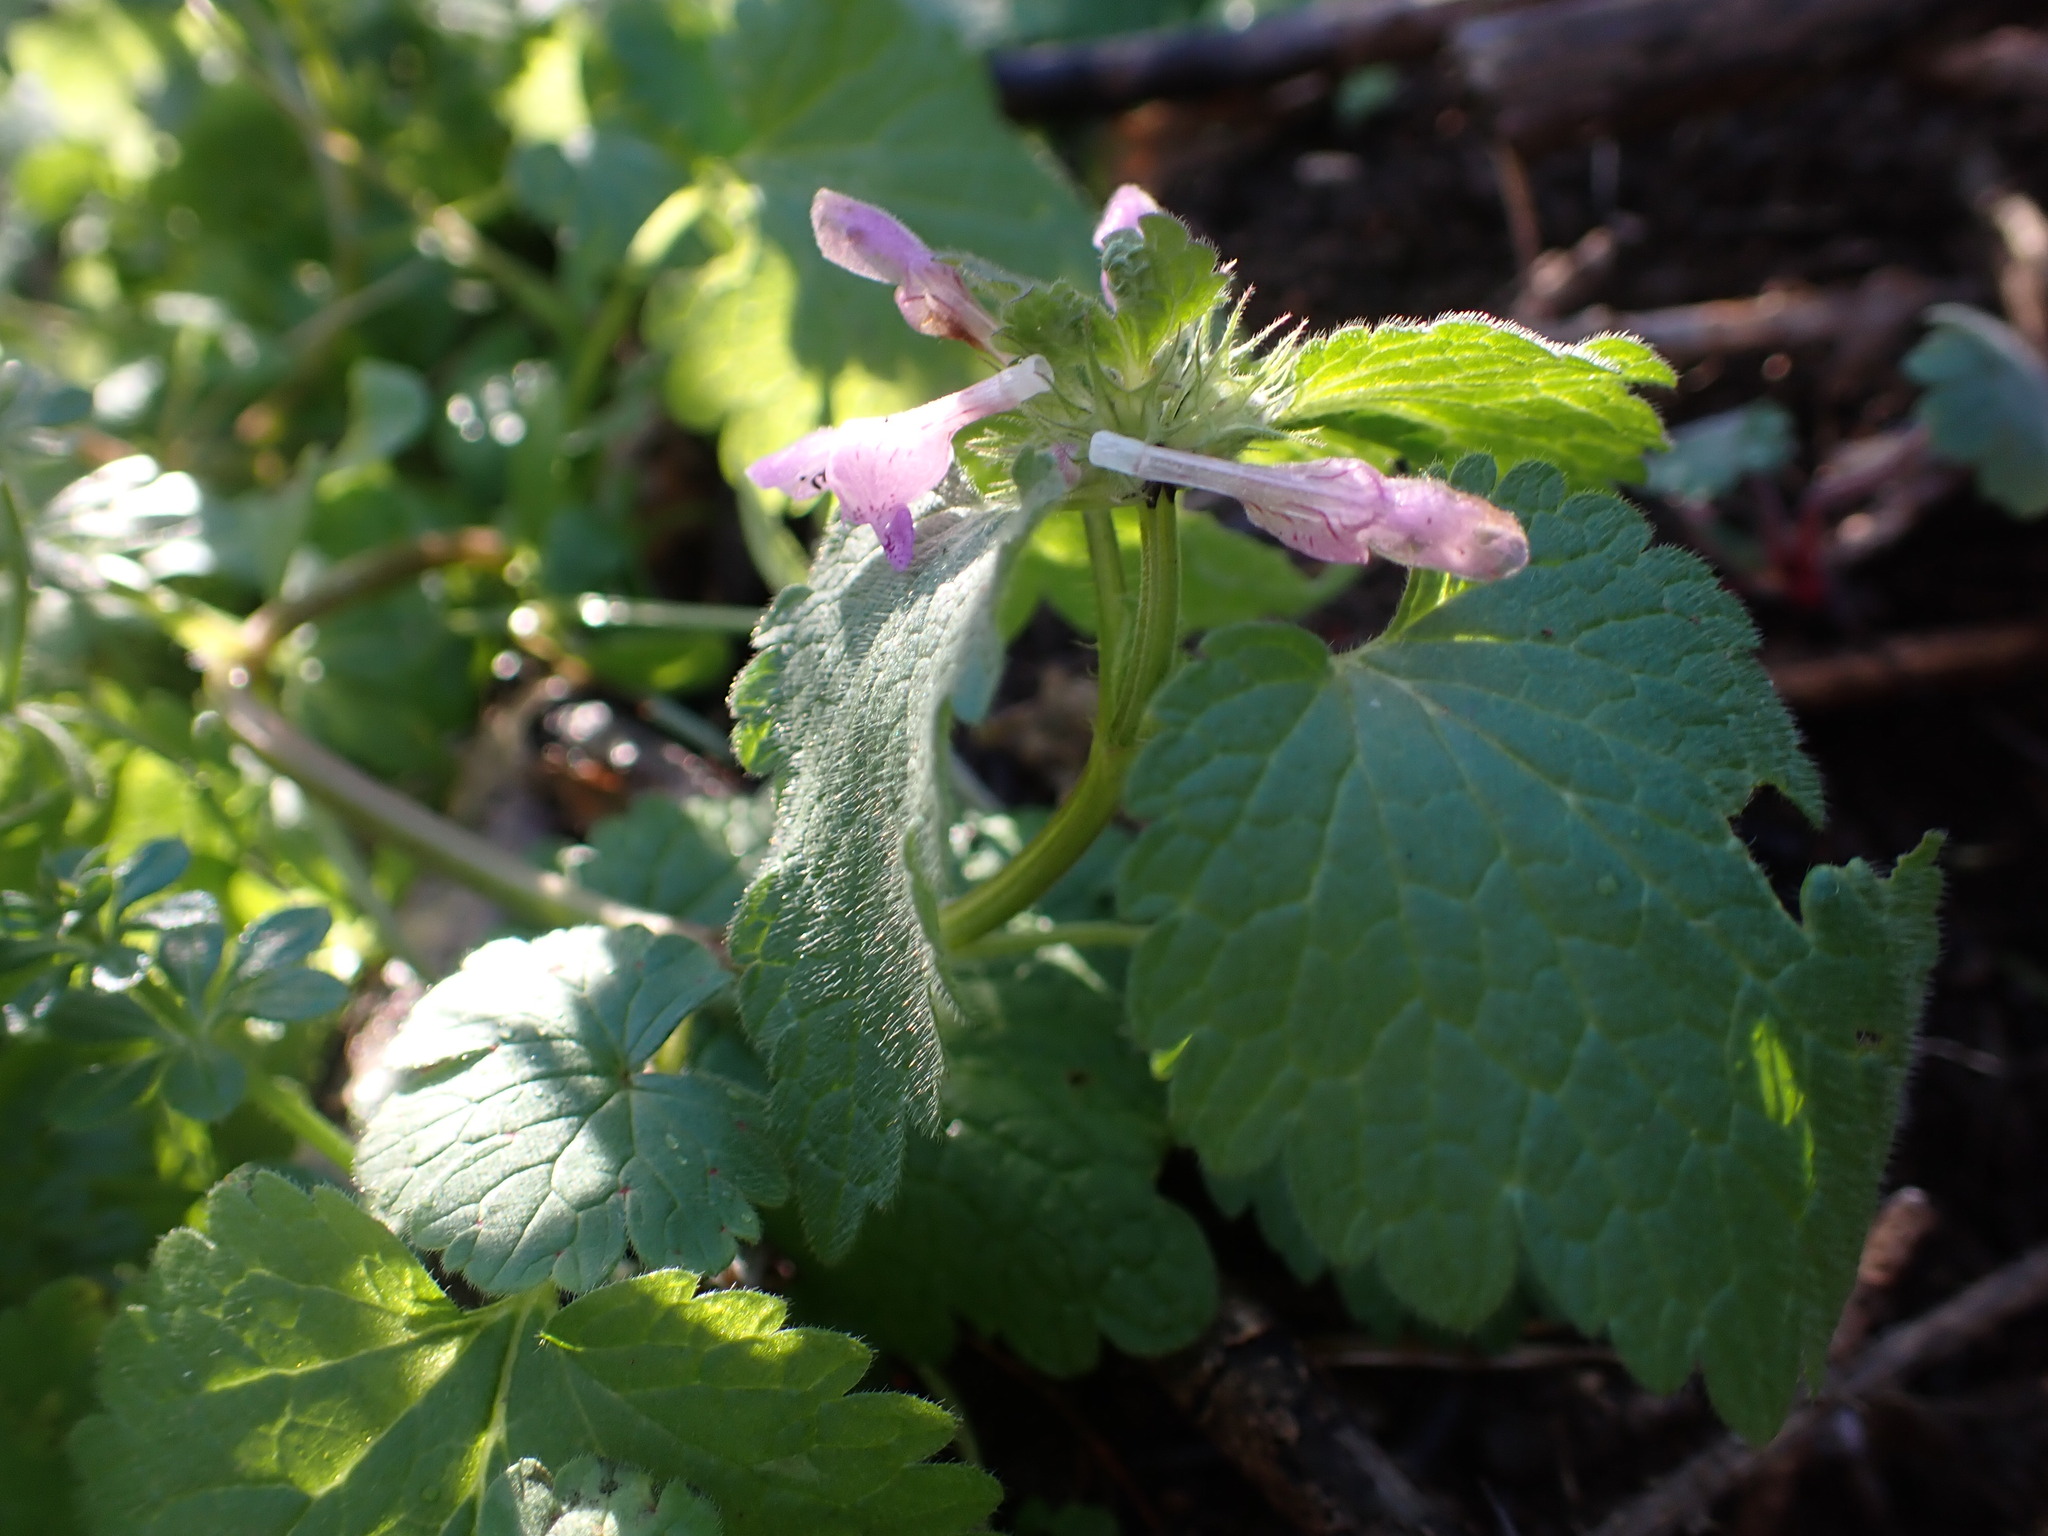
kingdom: Plantae
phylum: Tracheophyta
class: Magnoliopsida
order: Lamiales
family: Lamiaceae
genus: Lamium
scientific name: Lamium purpureum
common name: Red dead-nettle
